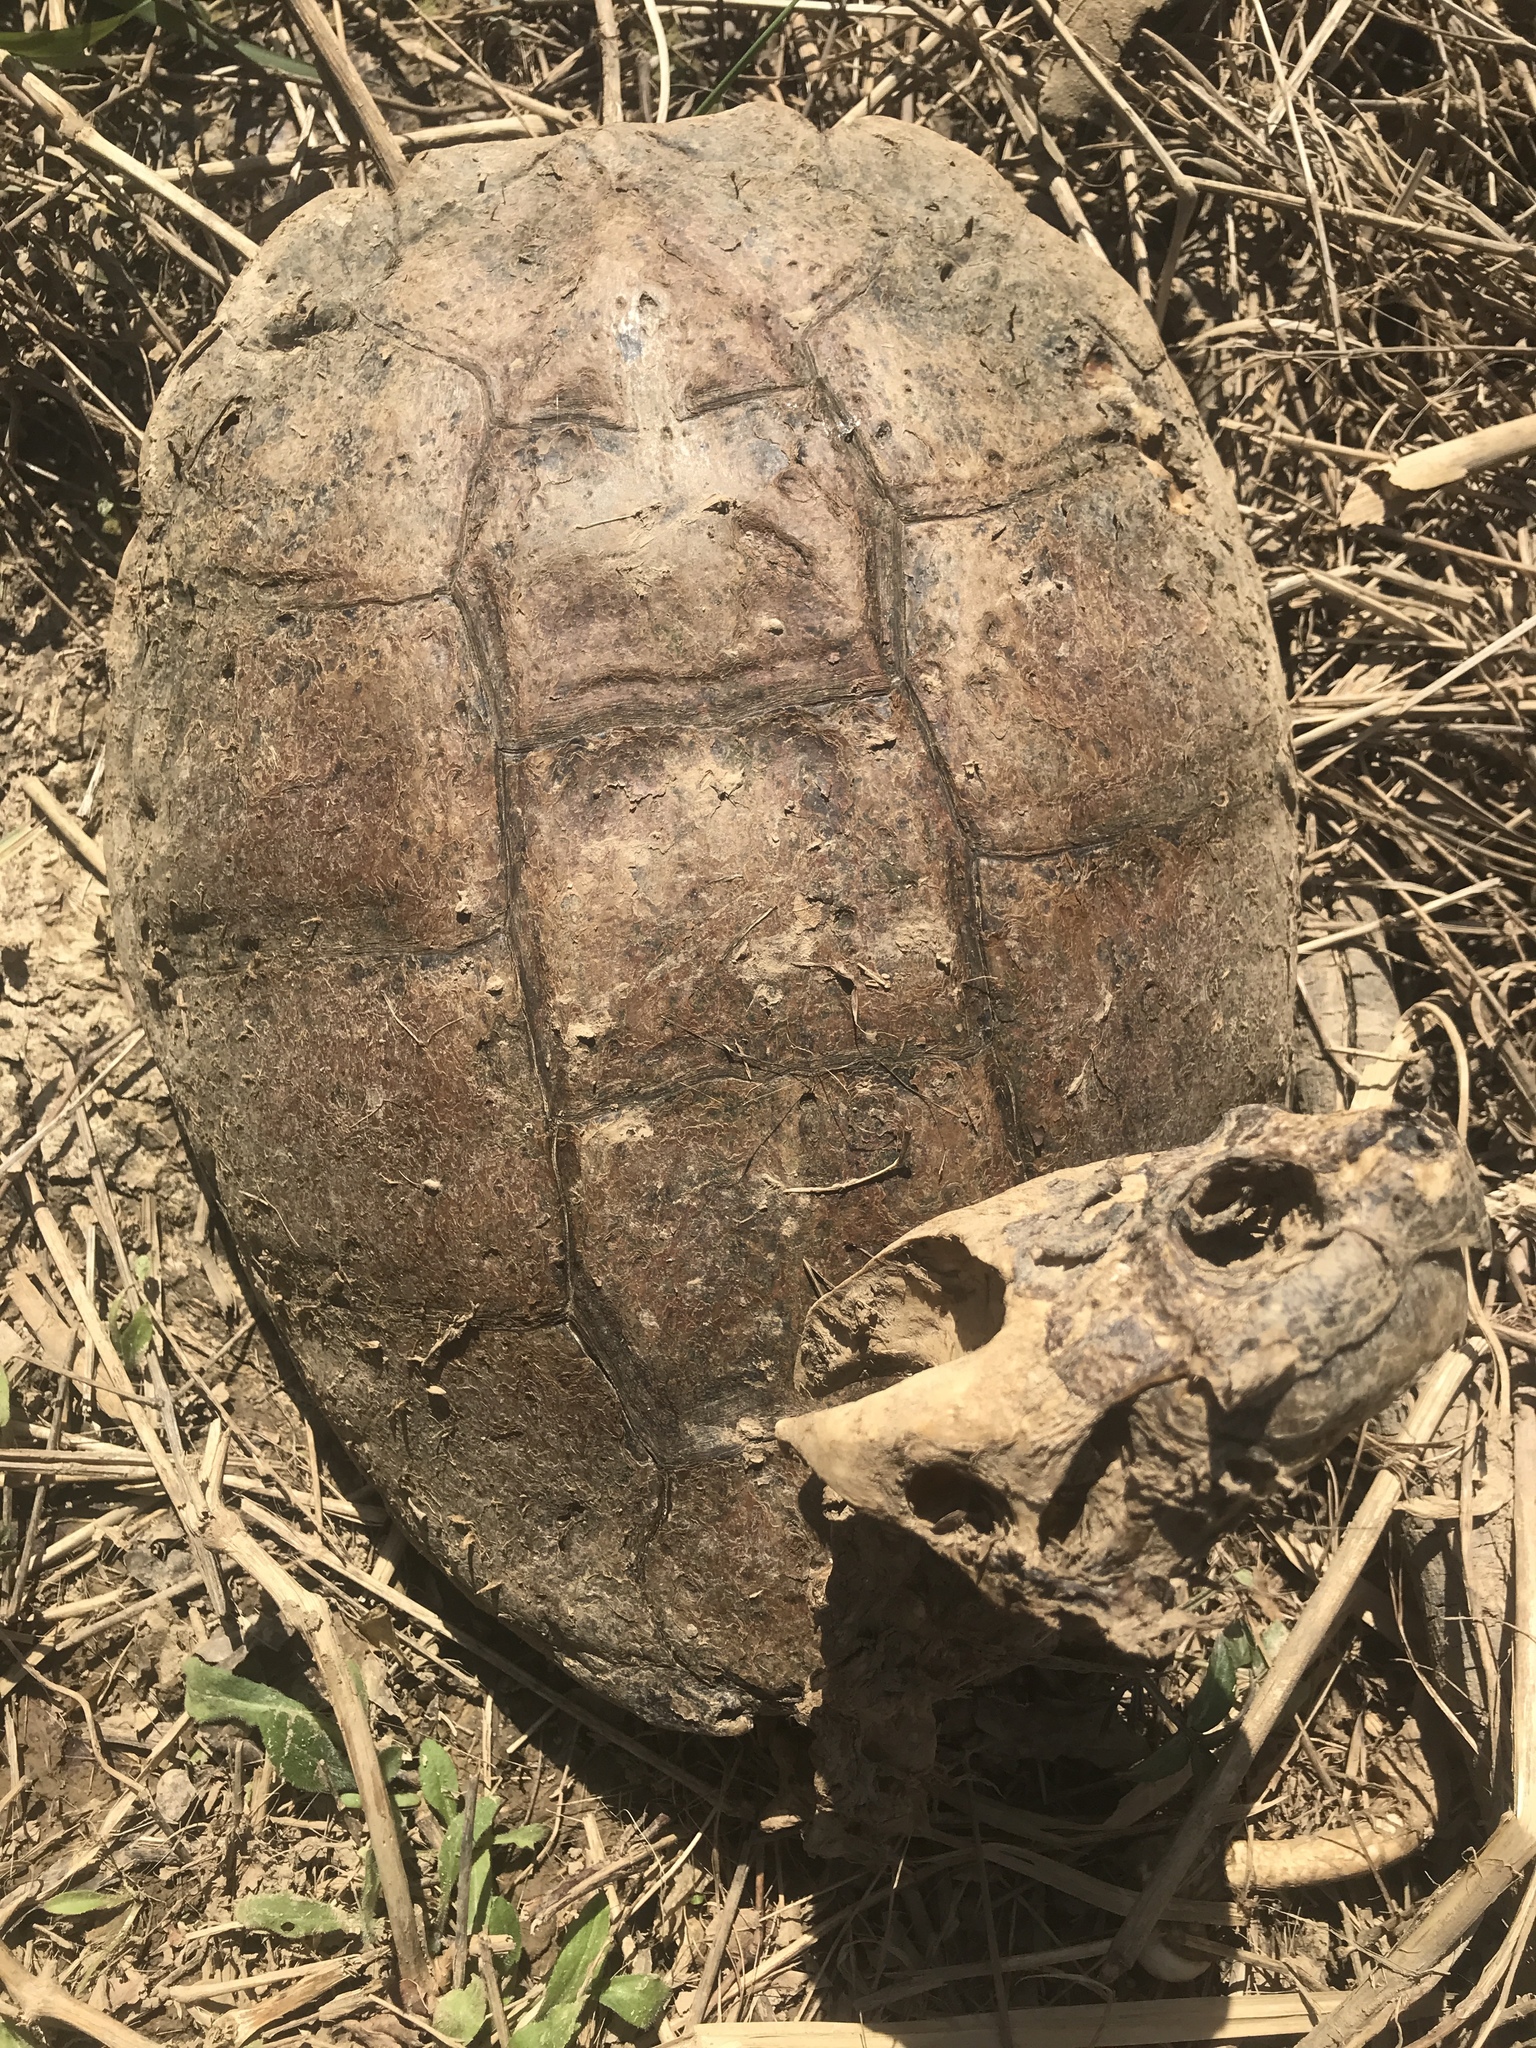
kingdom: Animalia
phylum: Chordata
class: Testudines
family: Chelydridae
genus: Chelydra
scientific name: Chelydra serpentina
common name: Common snapping turtle
